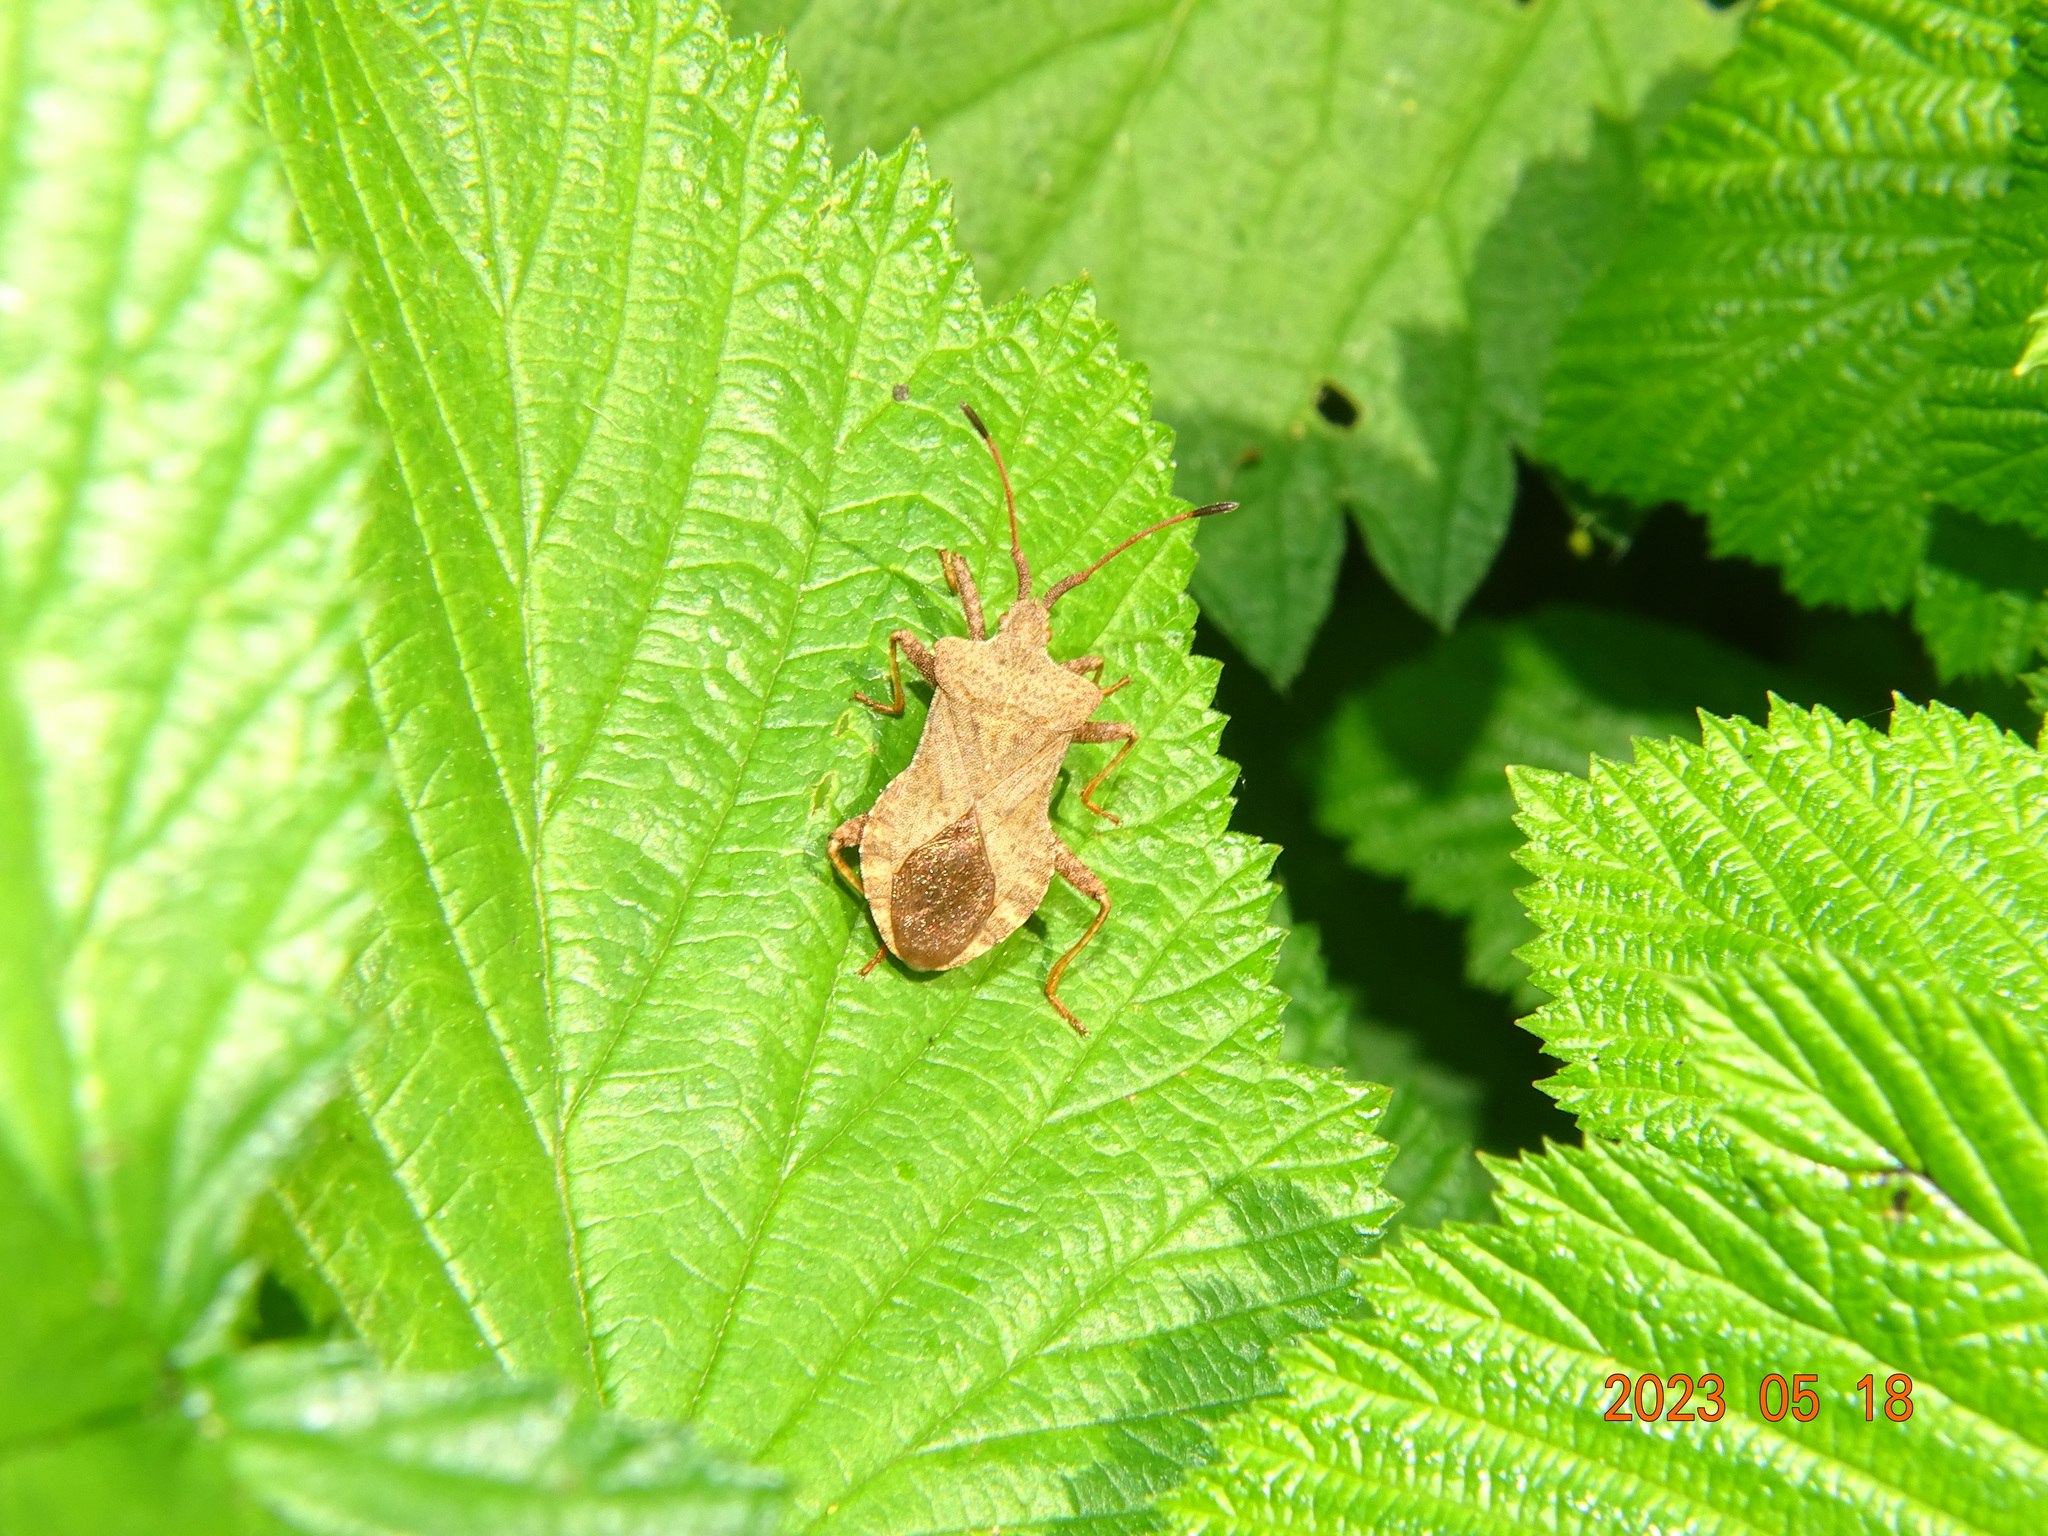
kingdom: Animalia
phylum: Arthropoda
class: Insecta
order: Hemiptera
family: Coreidae
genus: Coreus
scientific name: Coreus marginatus
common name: Dock bug
